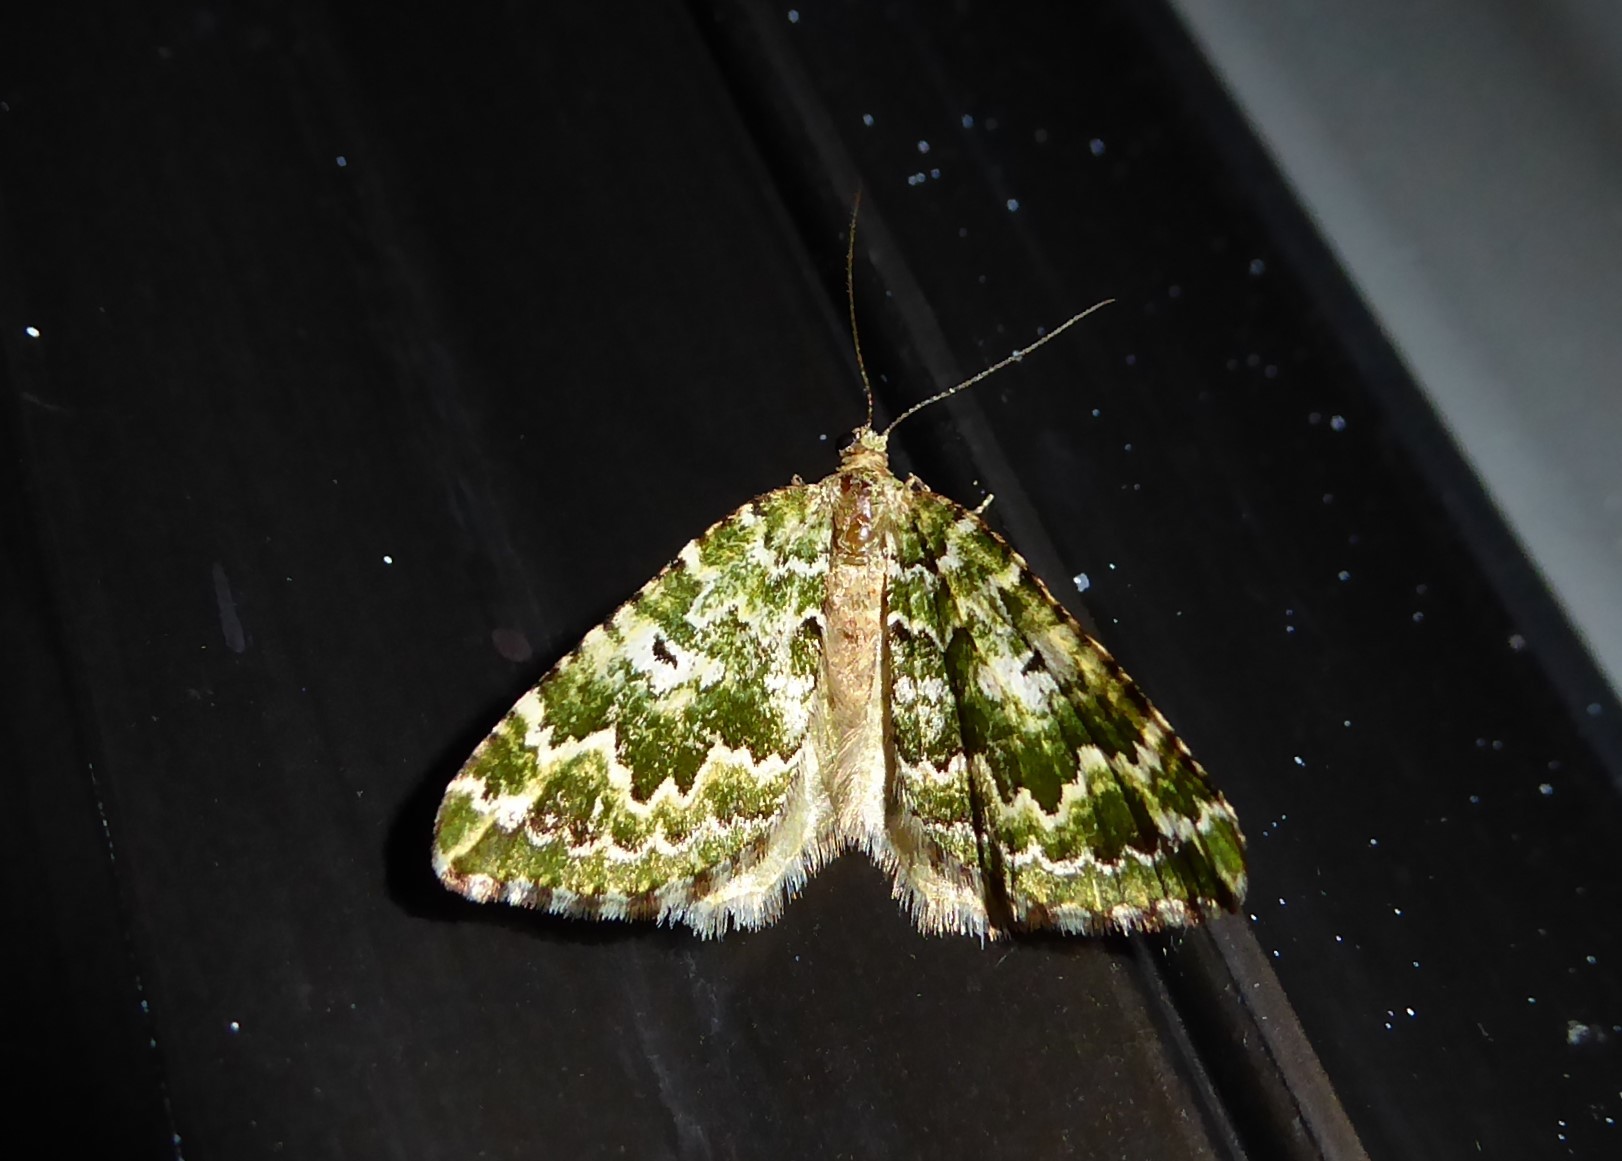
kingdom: Animalia
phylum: Arthropoda
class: Insecta
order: Lepidoptera
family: Geometridae
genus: Asaphodes
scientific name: Asaphodes beata
